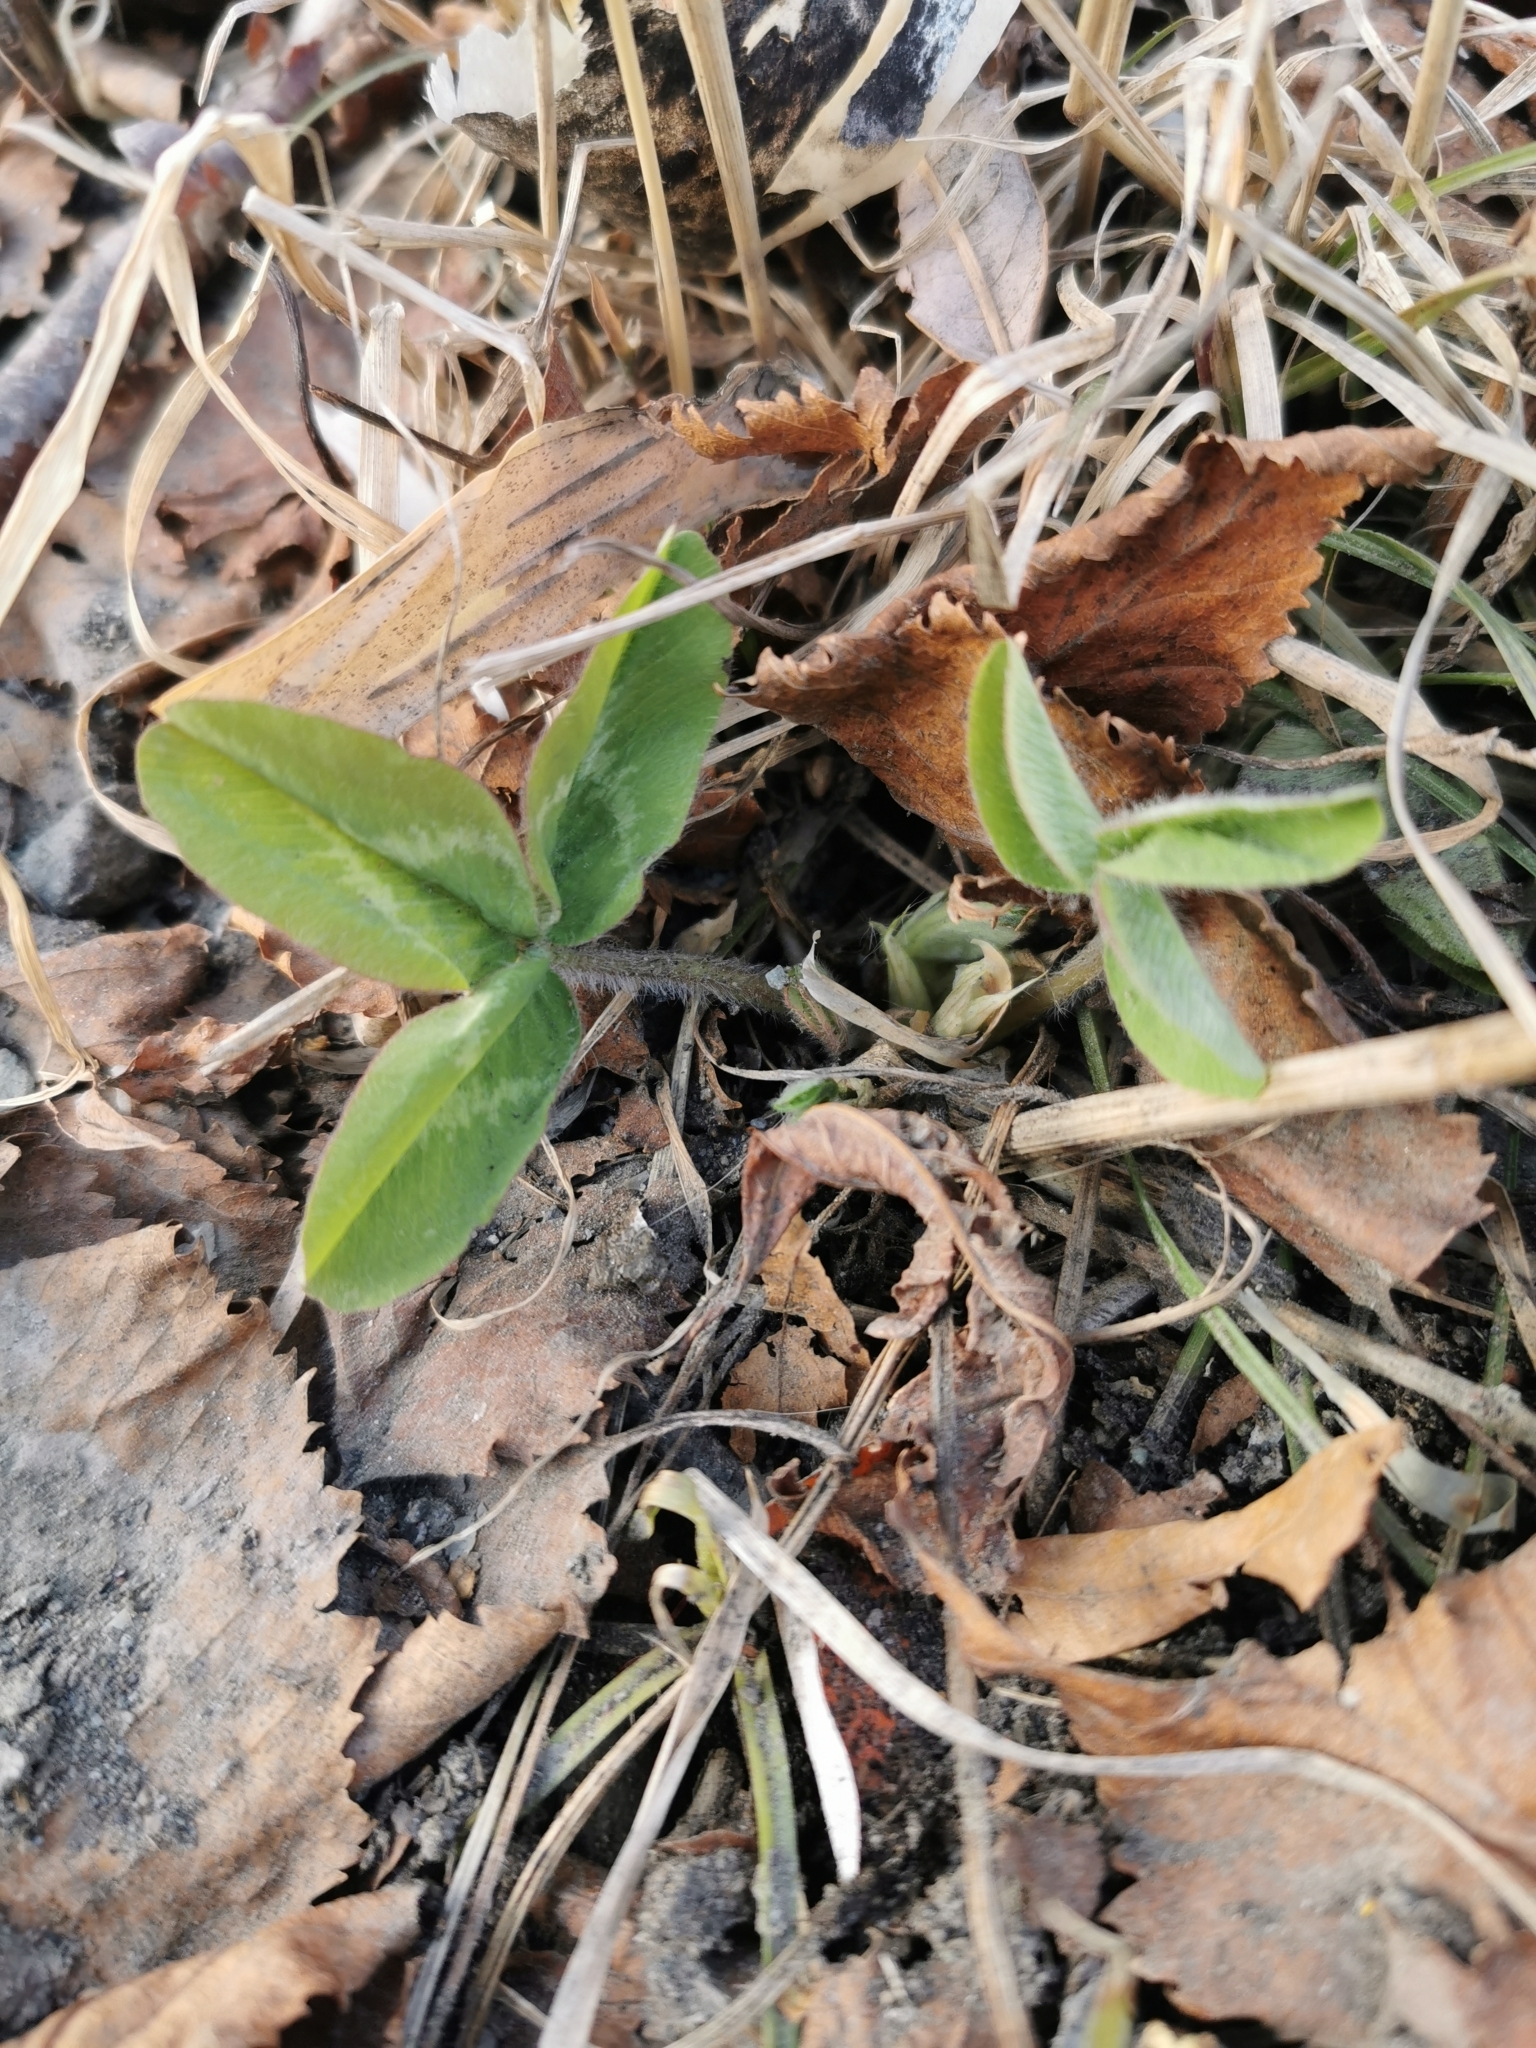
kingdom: Plantae
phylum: Tracheophyta
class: Magnoliopsida
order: Fabales
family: Fabaceae
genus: Trifolium
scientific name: Trifolium pratense
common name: Red clover
